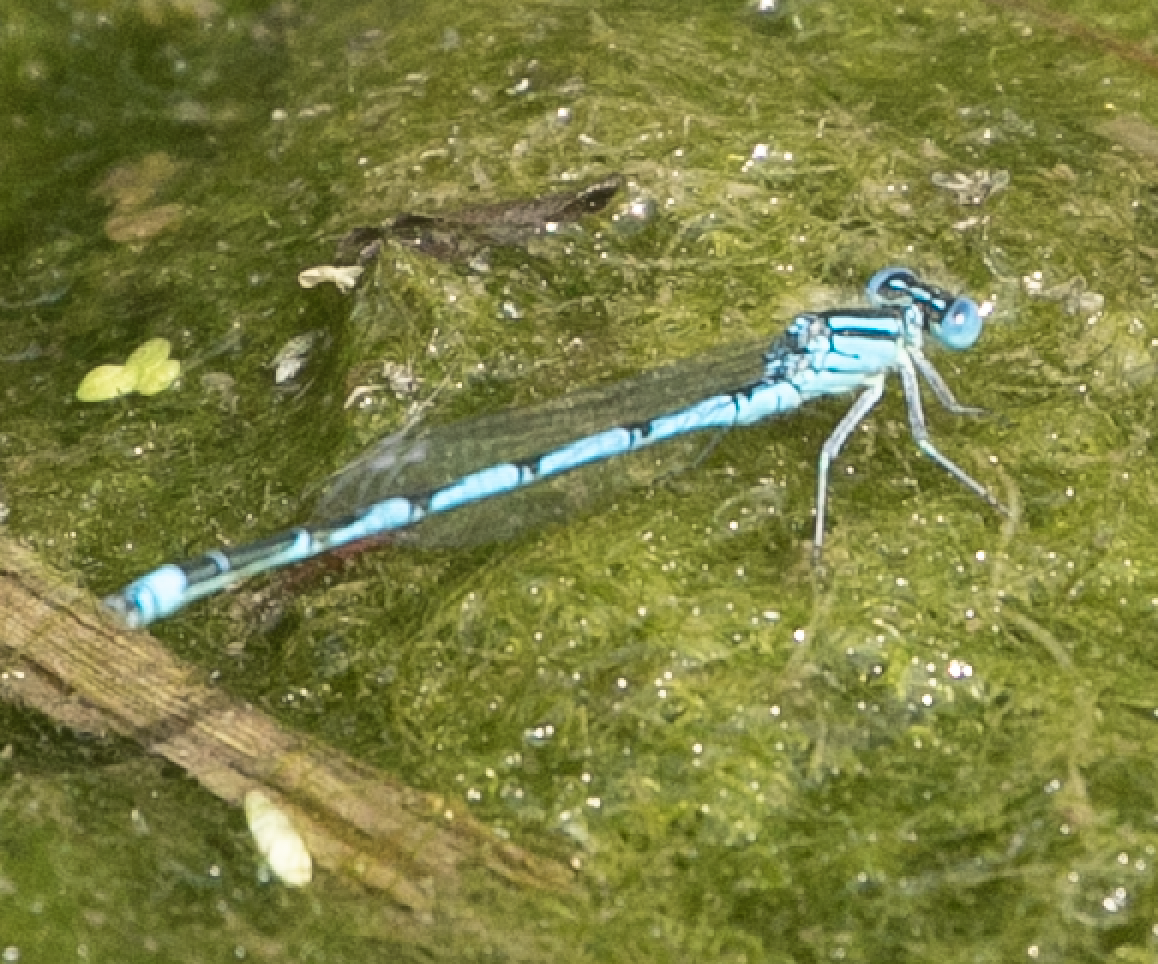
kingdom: Animalia
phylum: Arthropoda
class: Insecta
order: Odonata
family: Coenagrionidae
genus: Erythromma
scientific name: Erythromma lindenii
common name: Blue-eye
